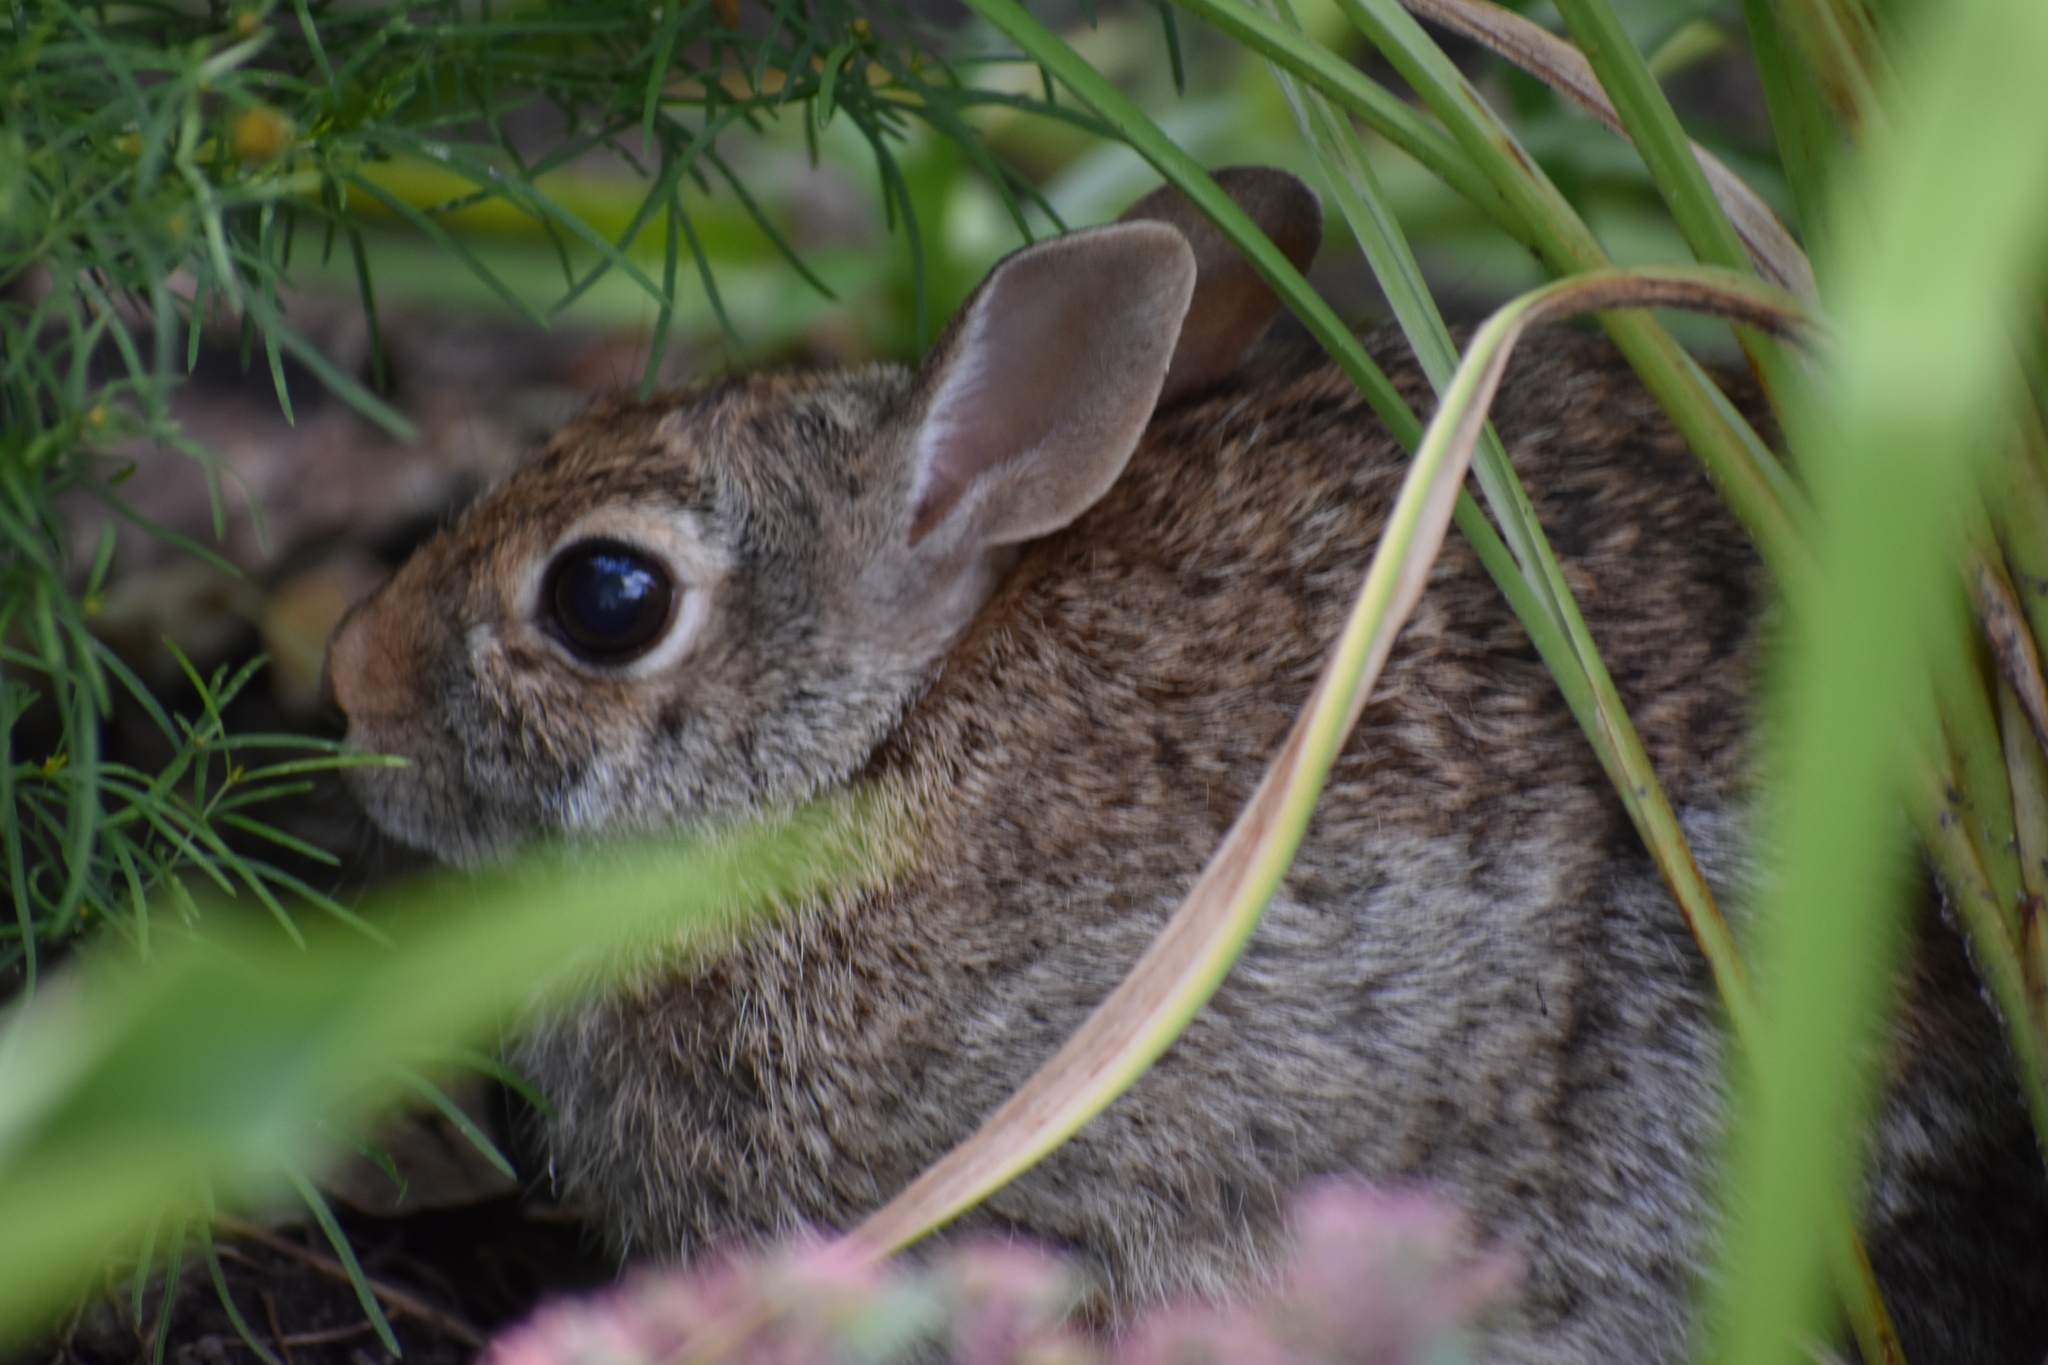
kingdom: Animalia
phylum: Chordata
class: Mammalia
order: Lagomorpha
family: Leporidae
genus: Sylvilagus
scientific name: Sylvilagus floridanus
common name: Eastern cottontail
